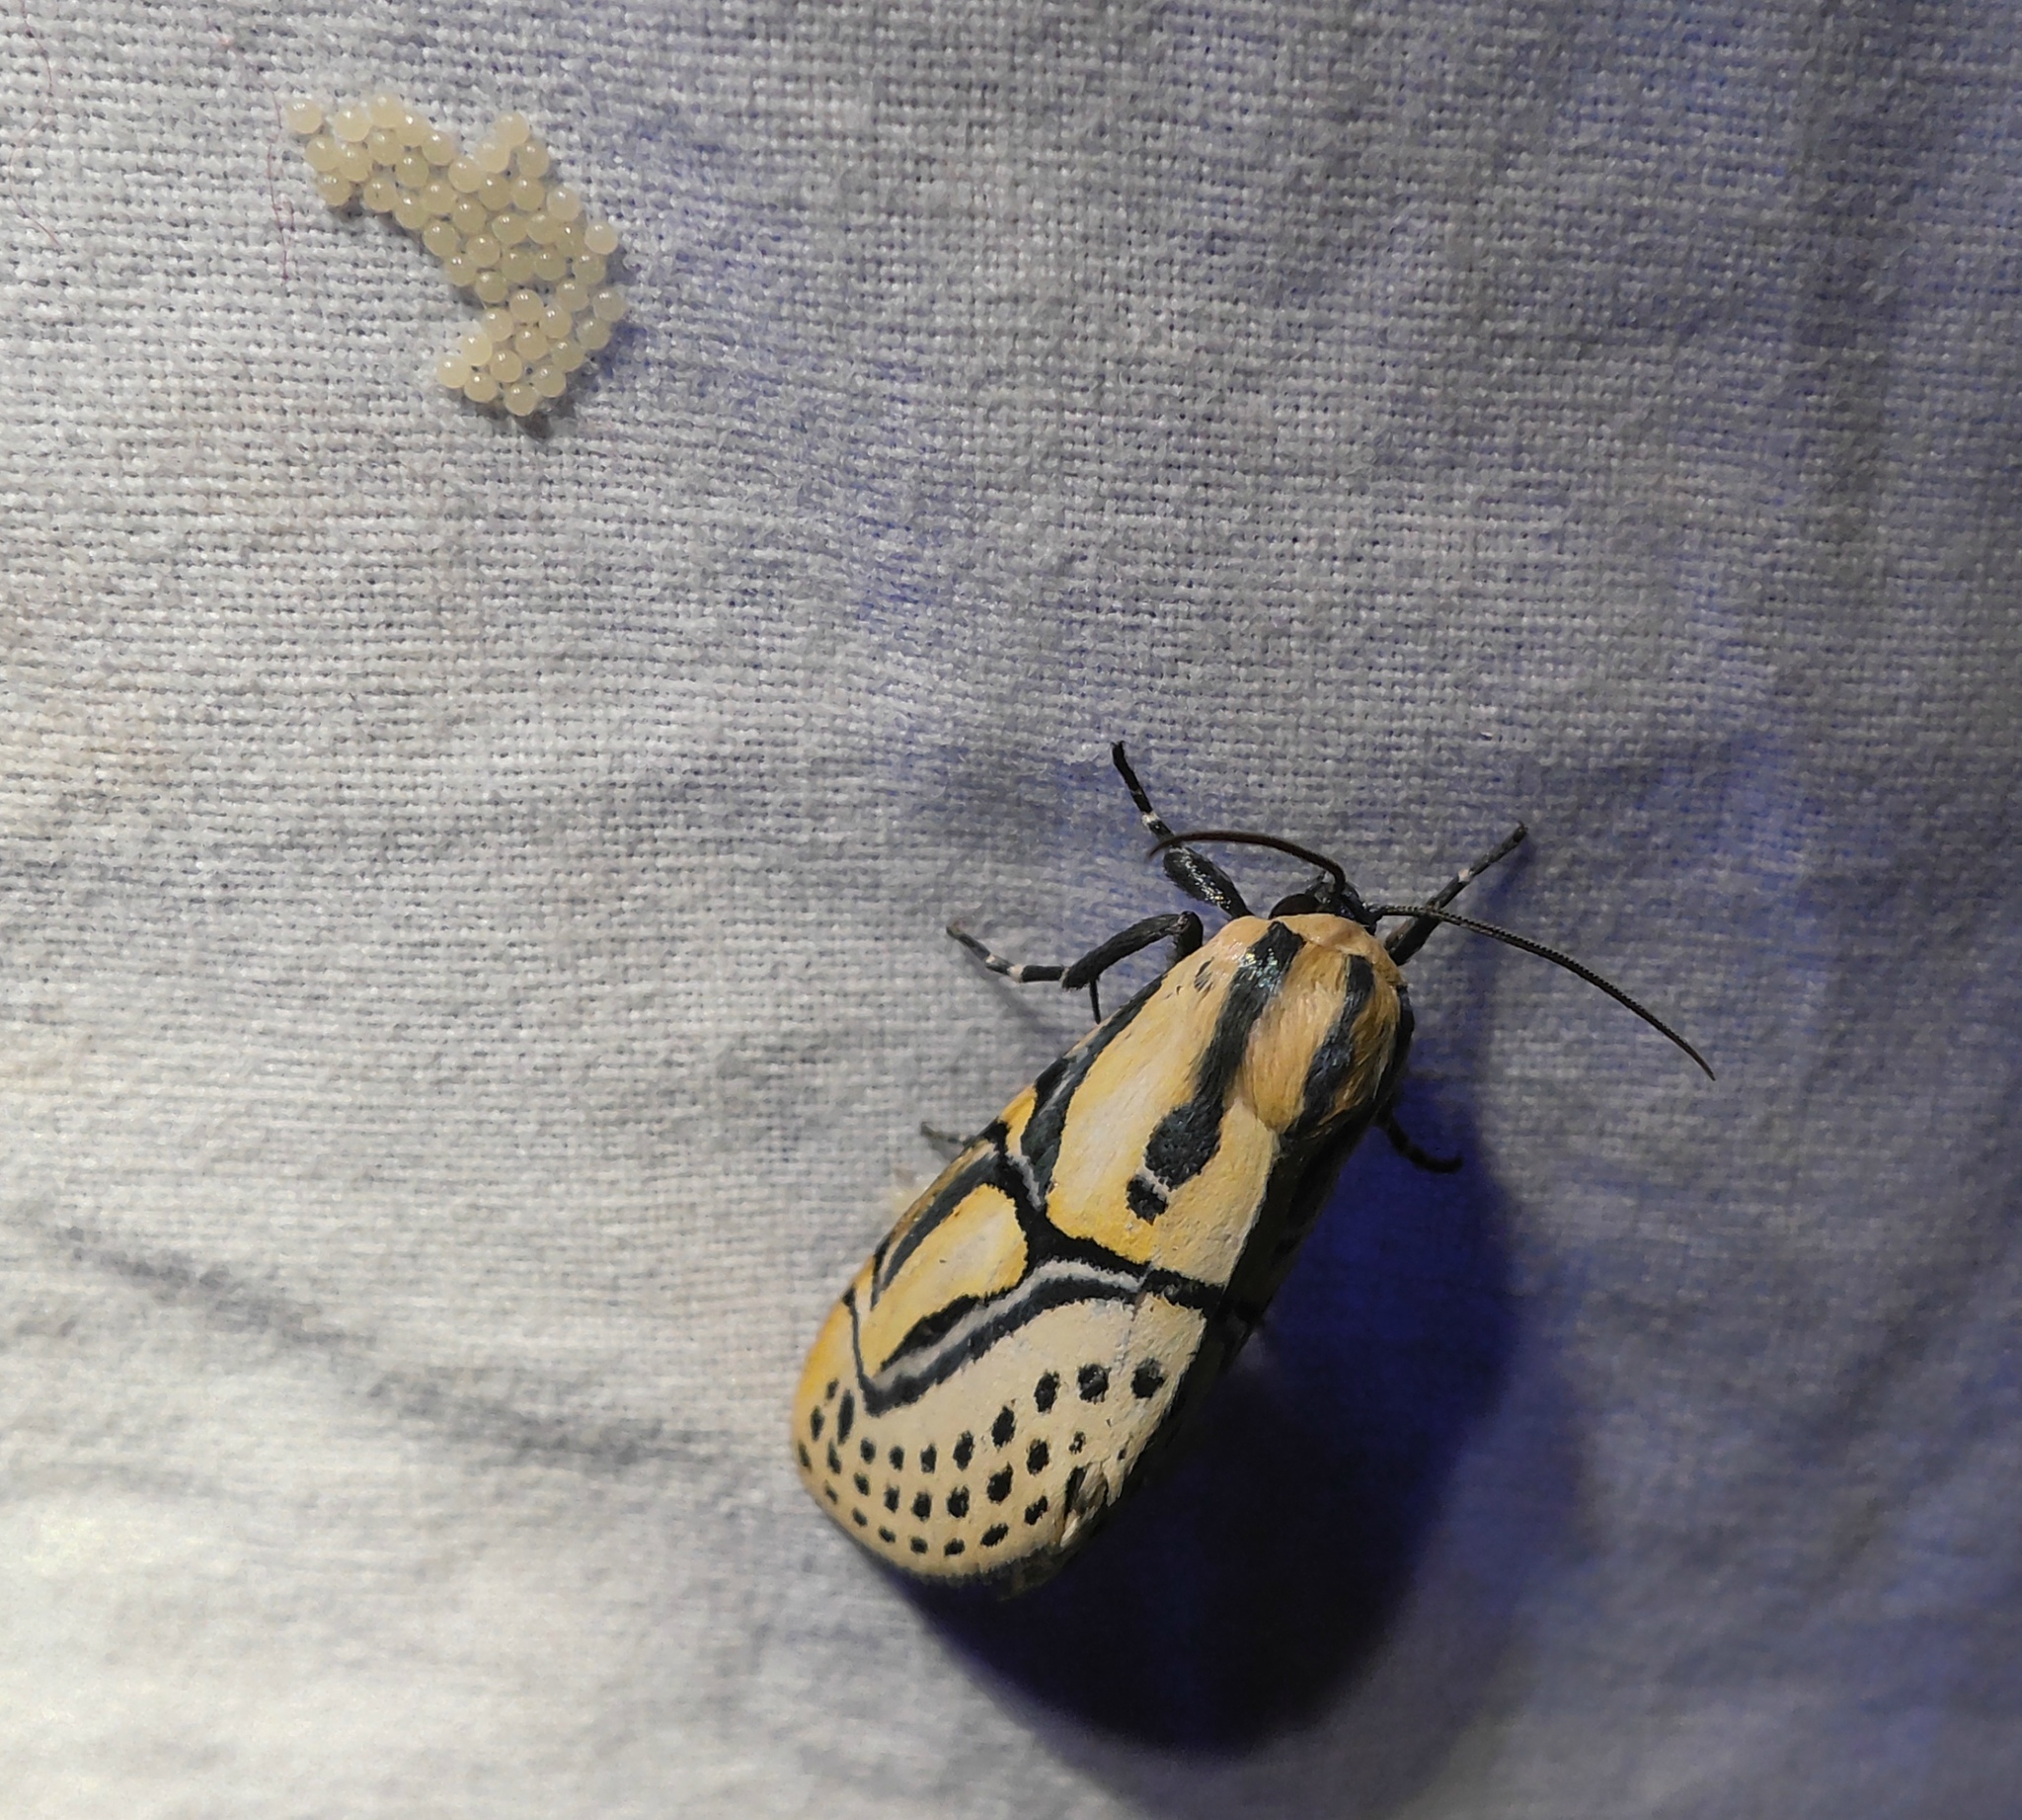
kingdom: Animalia
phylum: Arthropoda
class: Insecta
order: Lepidoptera
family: Erebidae
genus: Diphthera
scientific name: Diphthera festiva
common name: Hieroglyphic moth
